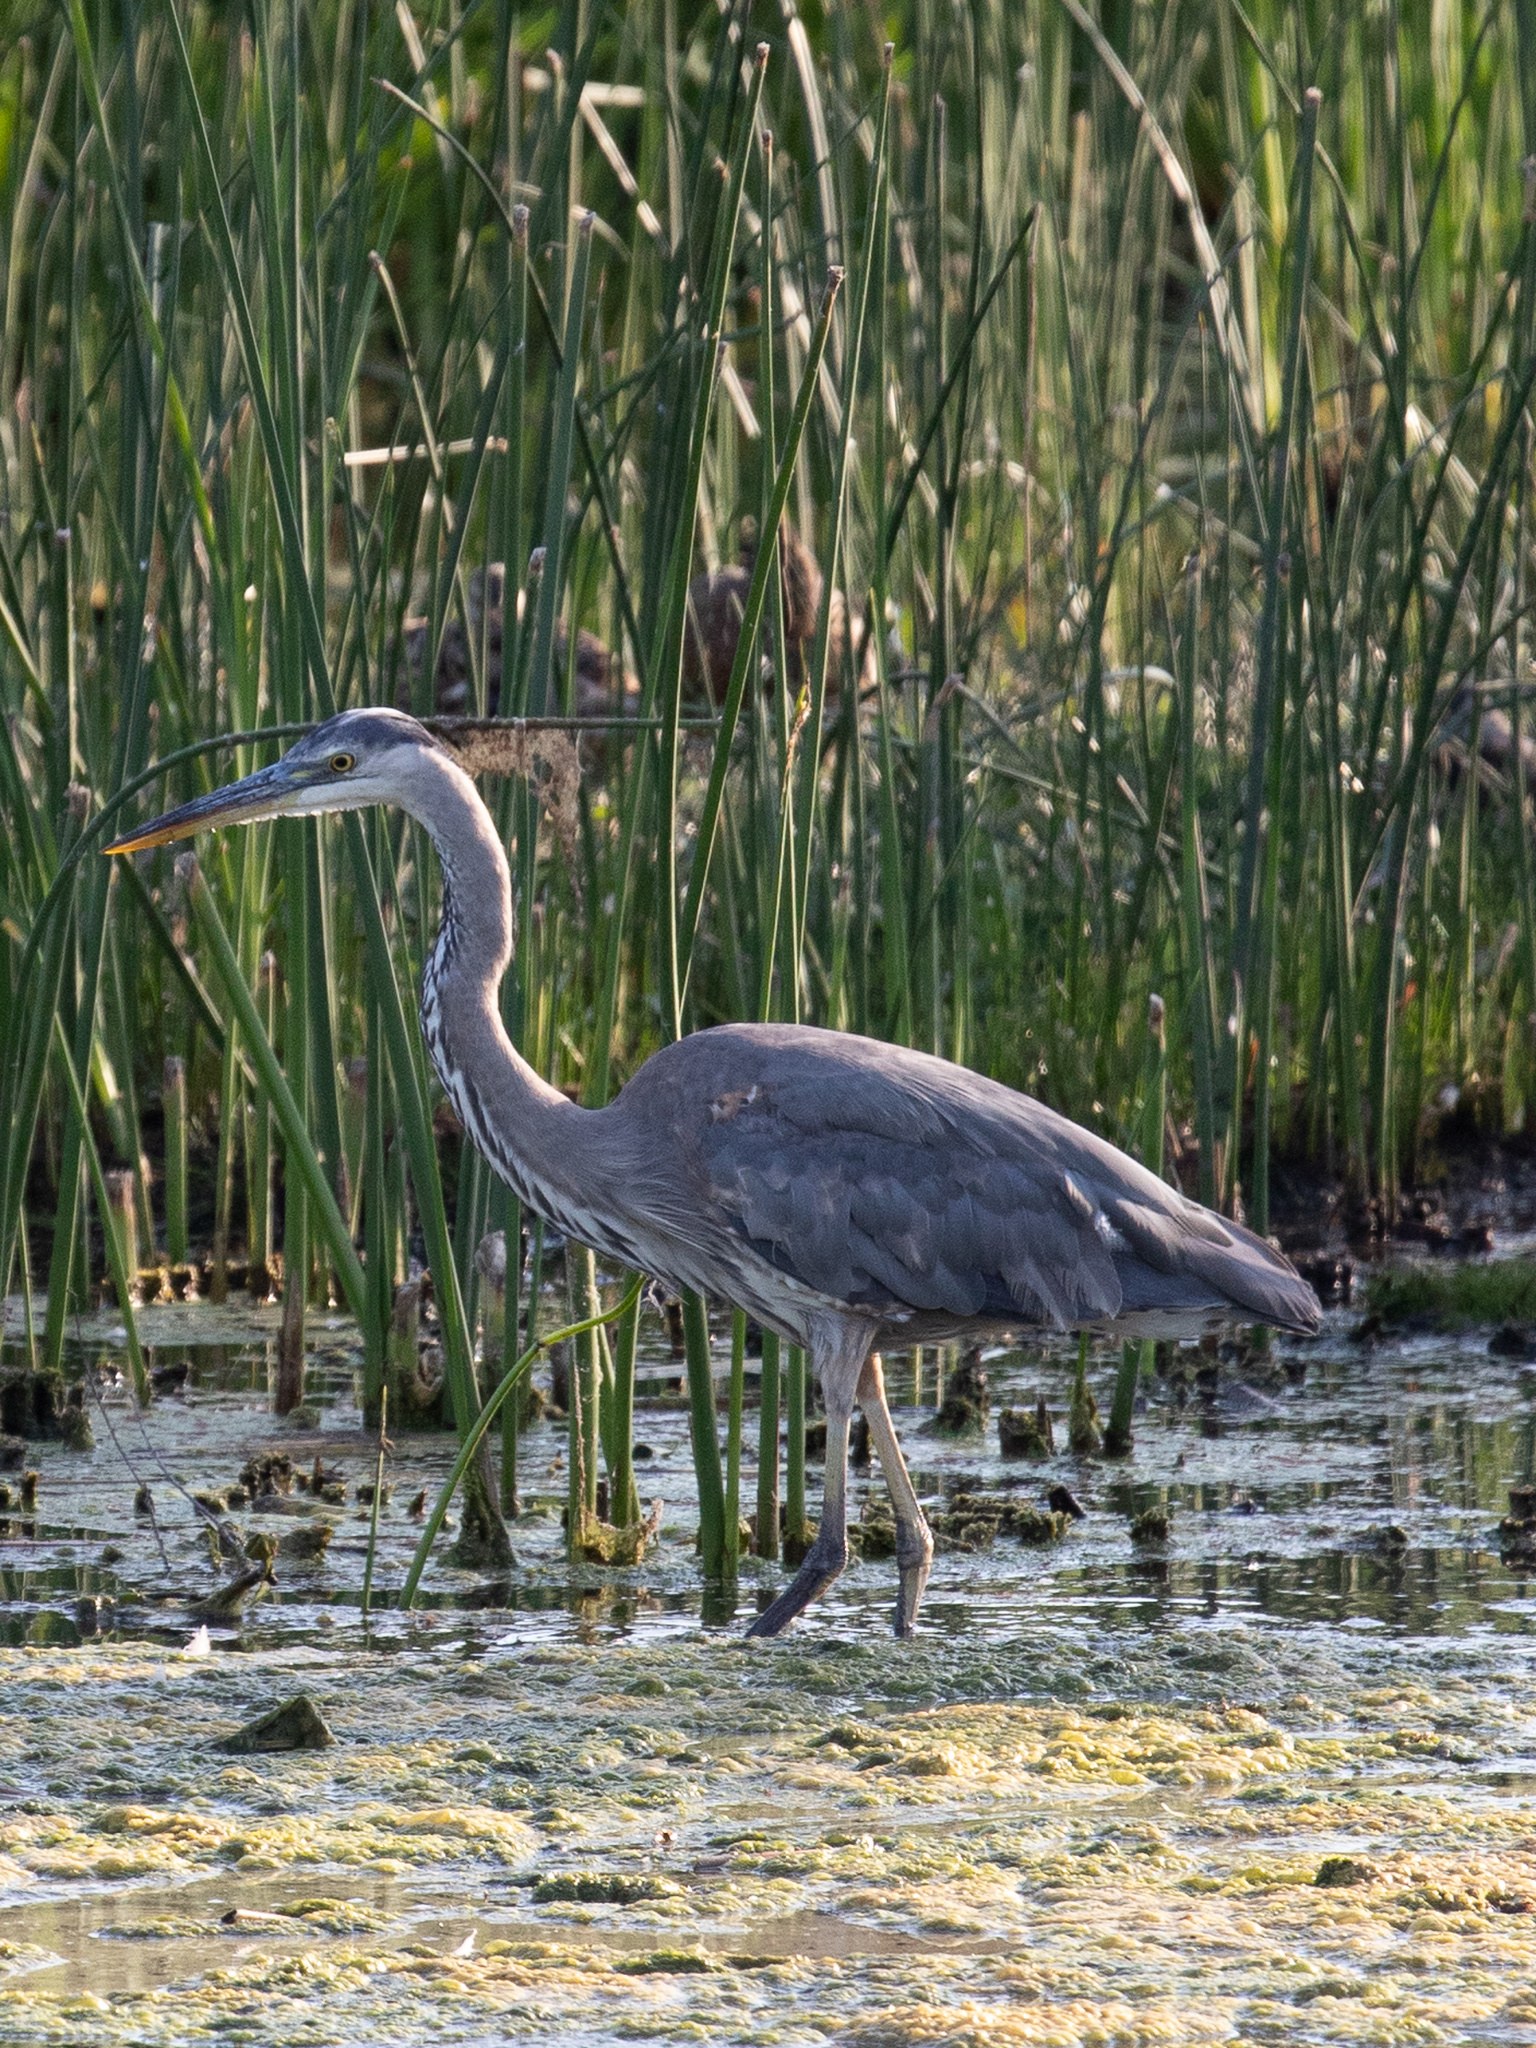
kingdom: Animalia
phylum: Chordata
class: Aves
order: Pelecaniformes
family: Ardeidae
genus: Ardea
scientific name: Ardea herodias
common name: Great blue heron
